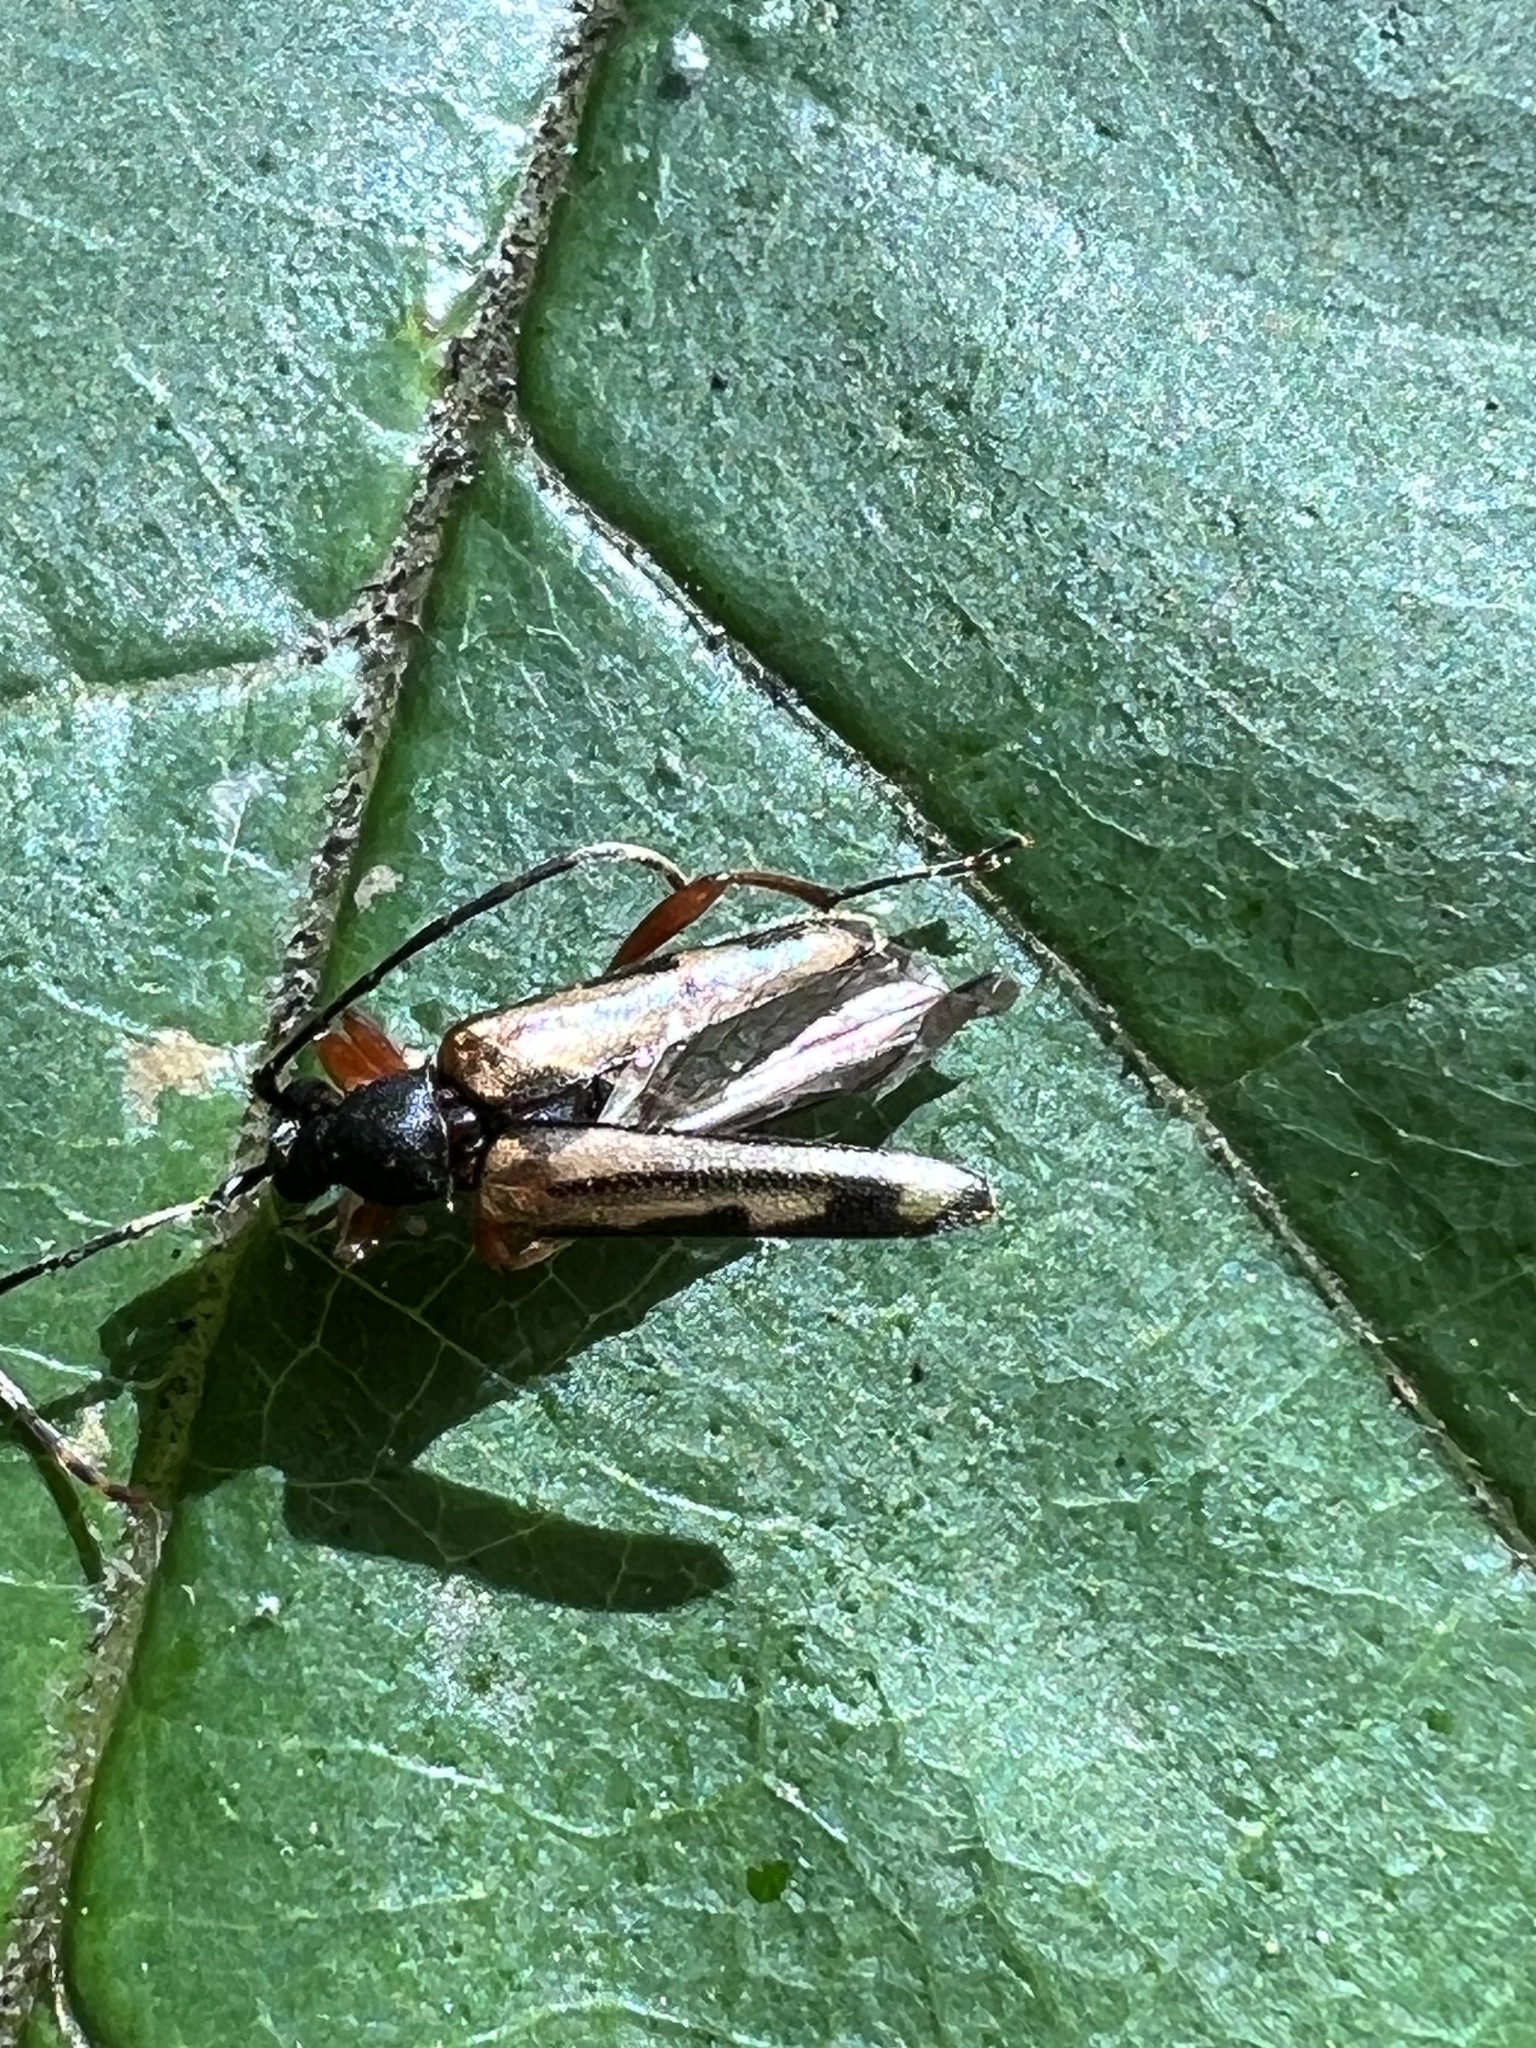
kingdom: Animalia
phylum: Arthropoda
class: Insecta
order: Coleoptera
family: Cerambycidae
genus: Analeptura
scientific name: Analeptura lineola
